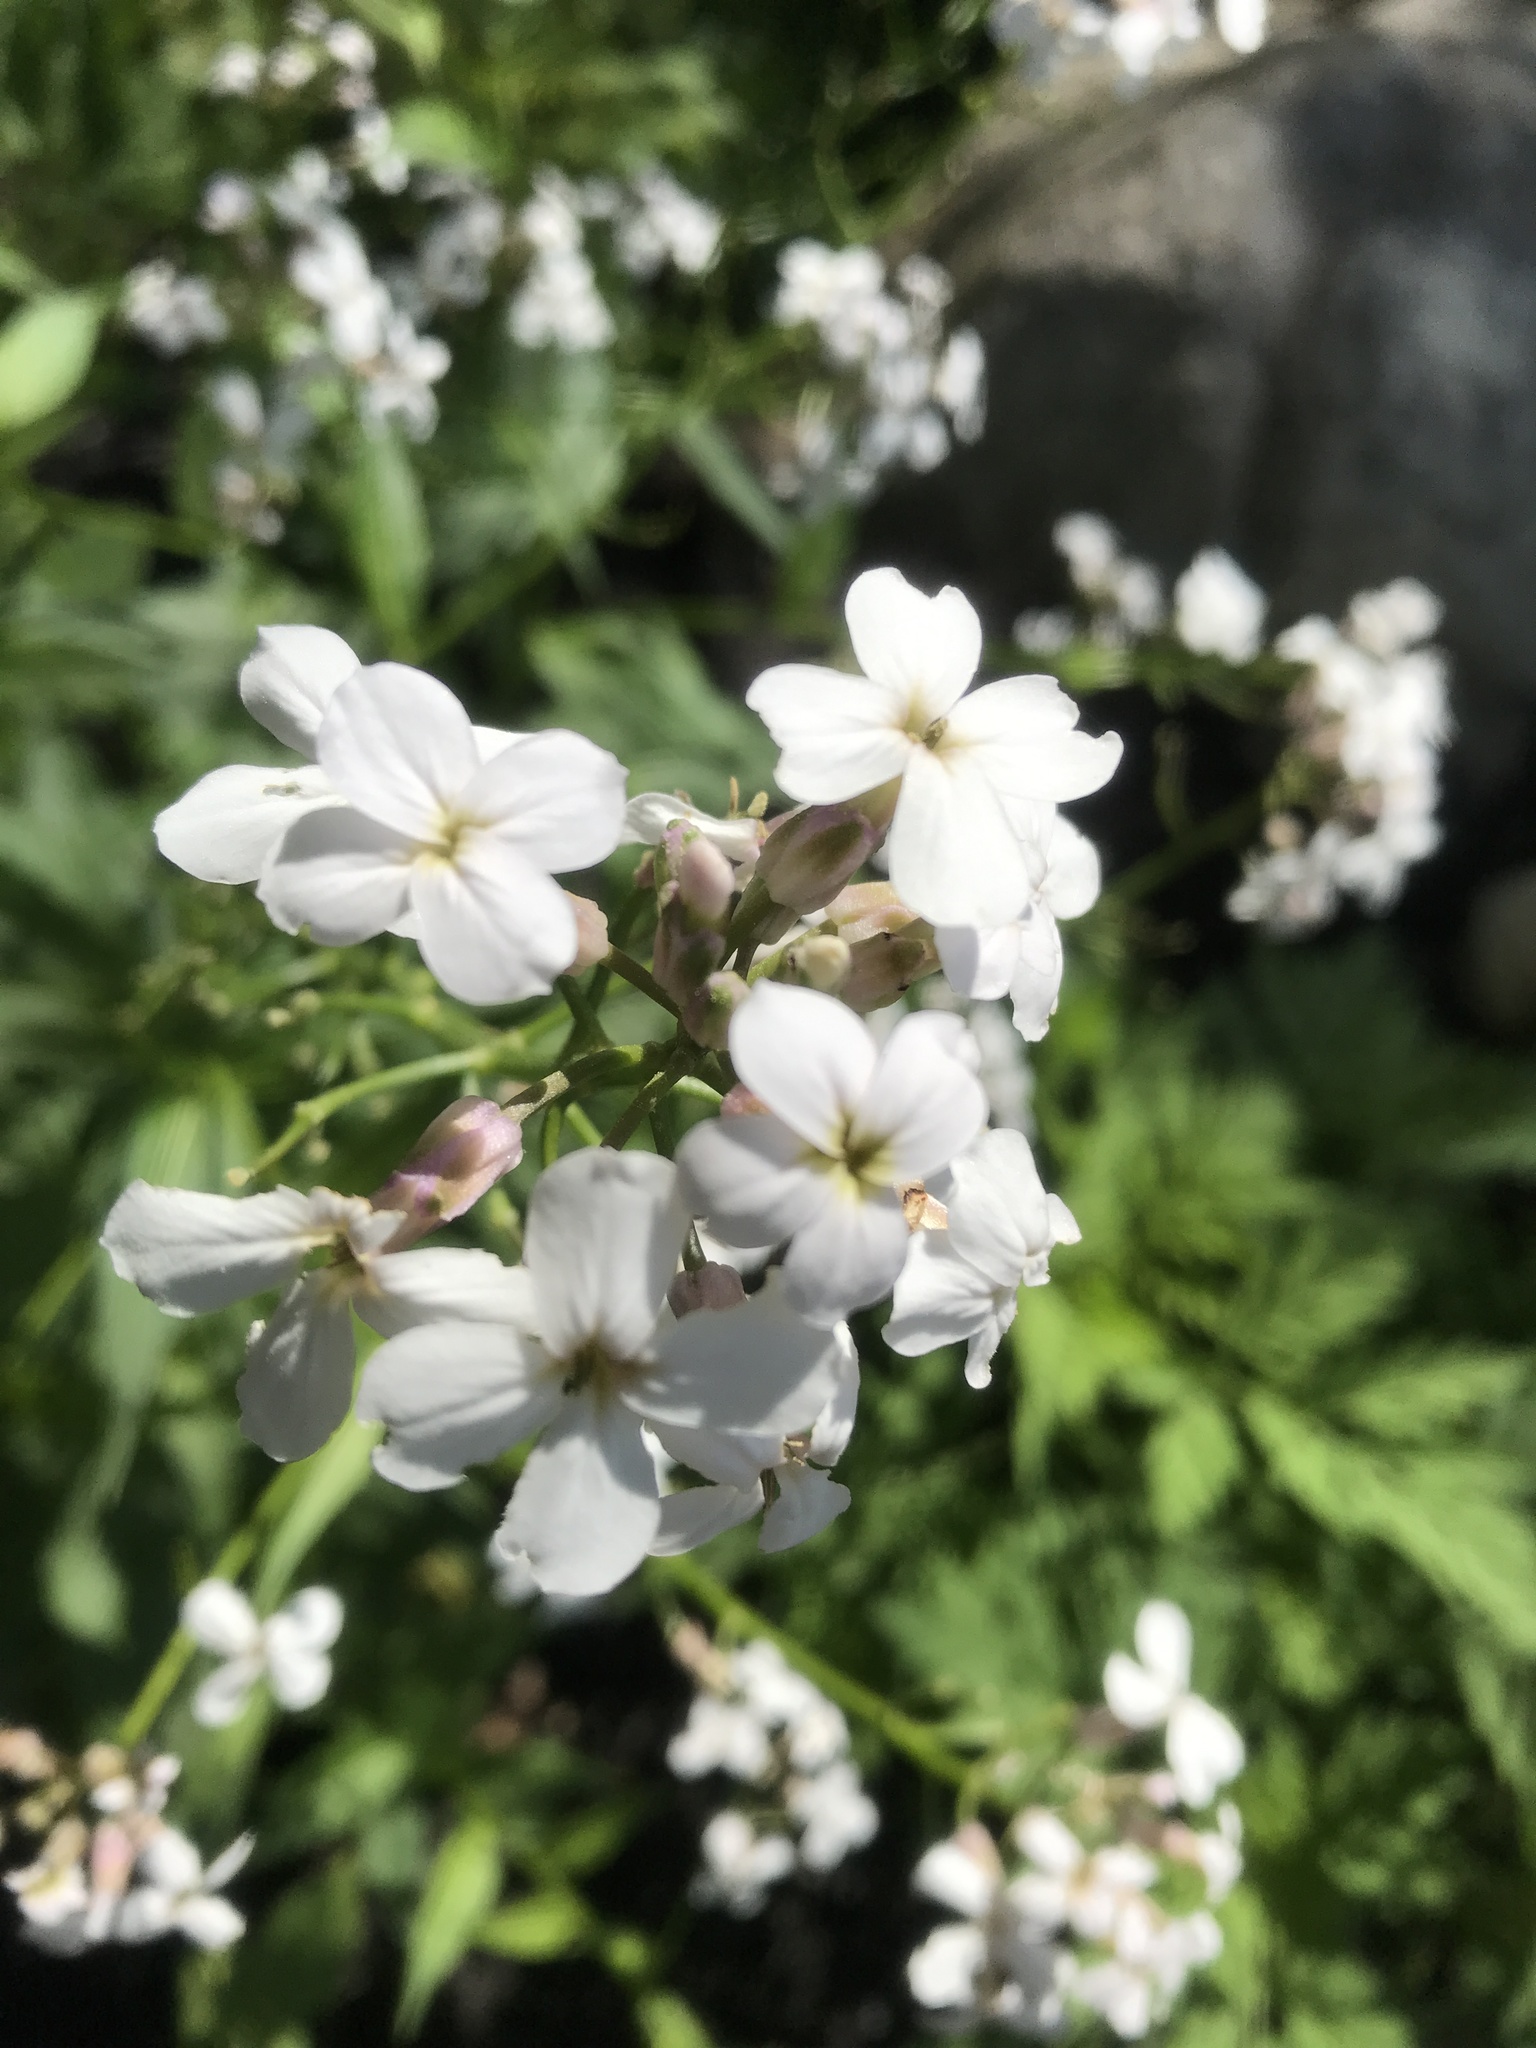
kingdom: Plantae
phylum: Tracheophyta
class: Magnoliopsida
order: Brassicales
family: Brassicaceae
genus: Hesperis
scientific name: Hesperis matronalis
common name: Dame's-violet
